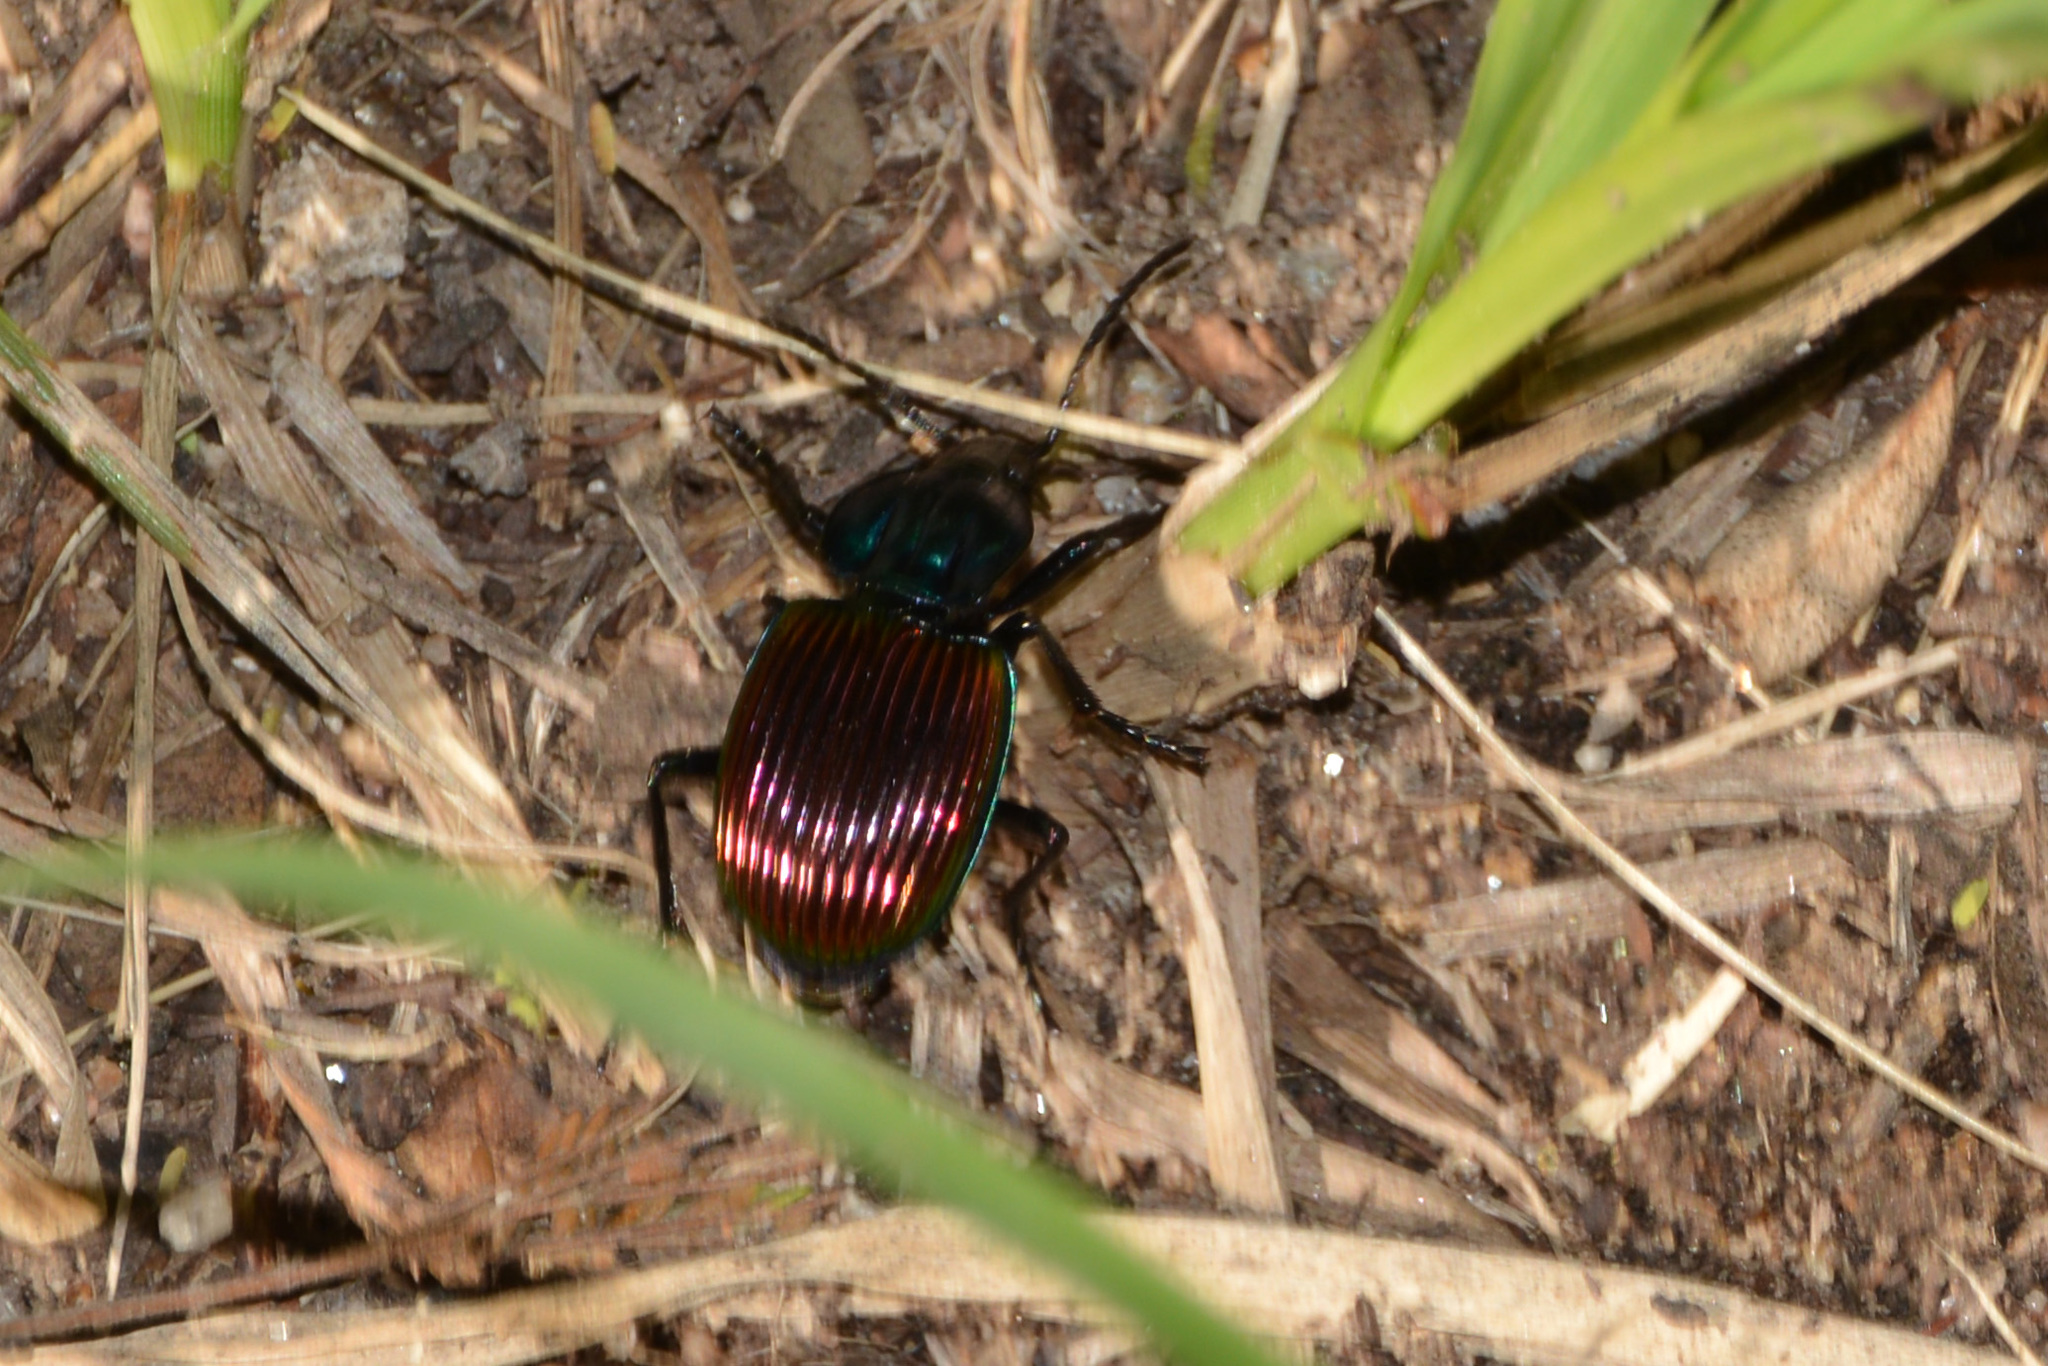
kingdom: Animalia
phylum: Arthropoda
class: Insecta
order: Coleoptera
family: Carabidae
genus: Brachygnathus
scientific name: Brachygnathus festivus
